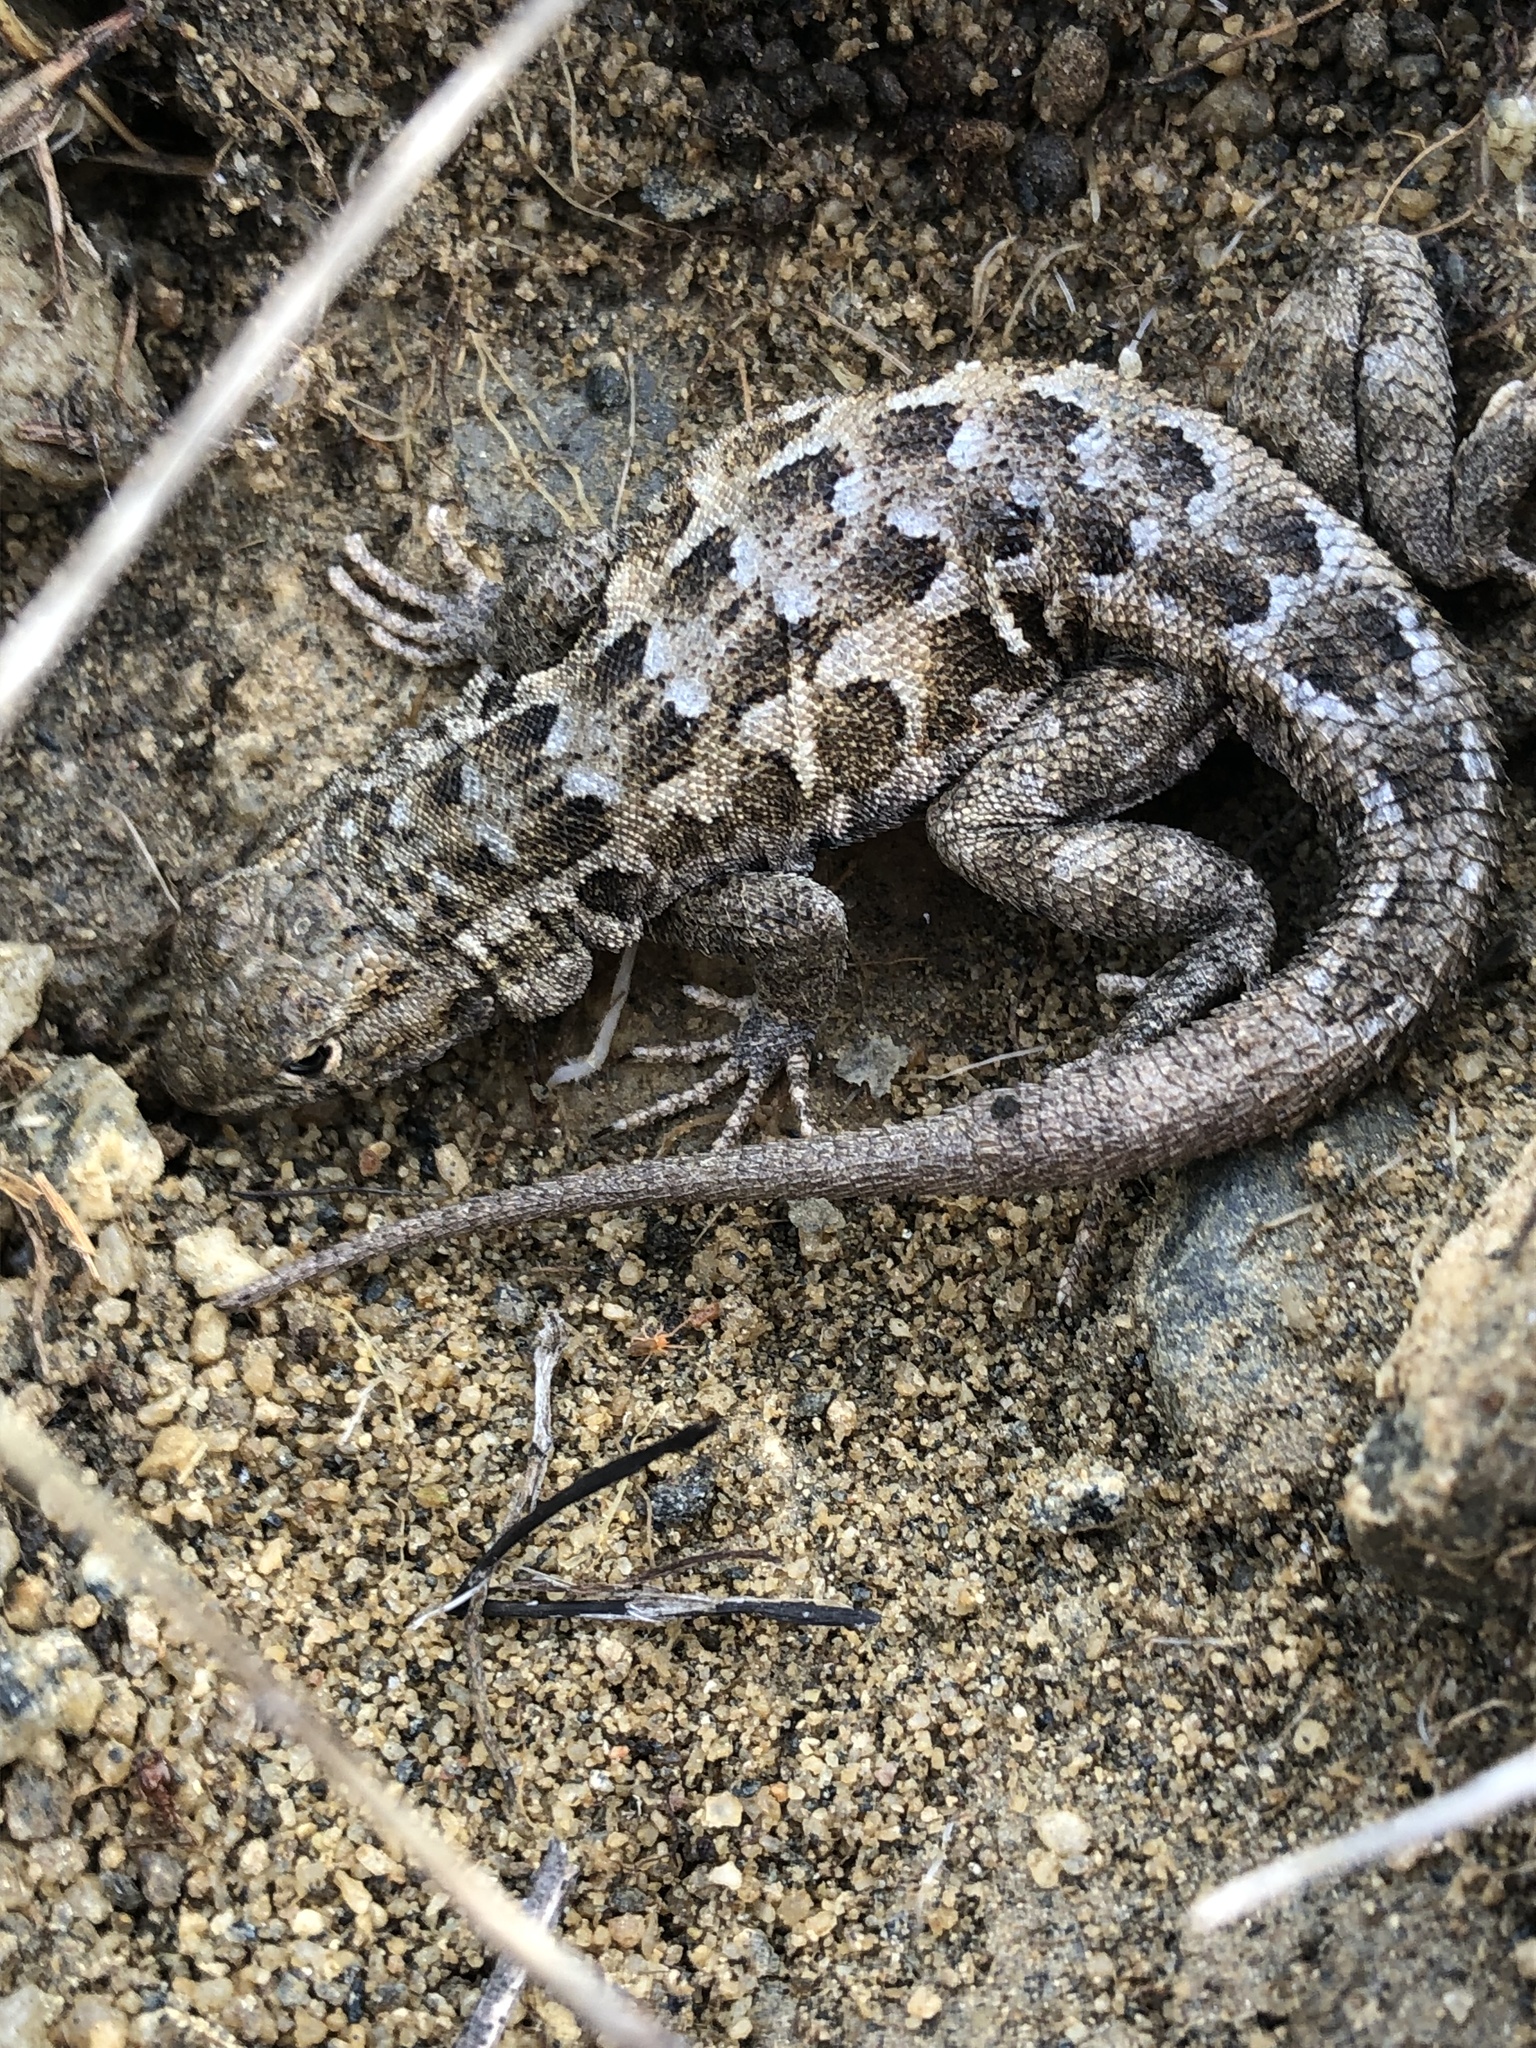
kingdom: Animalia
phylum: Chordata
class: Squamata
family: Phrynosomatidae
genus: Uta
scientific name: Uta stansburiana
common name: Side-blotched lizard
